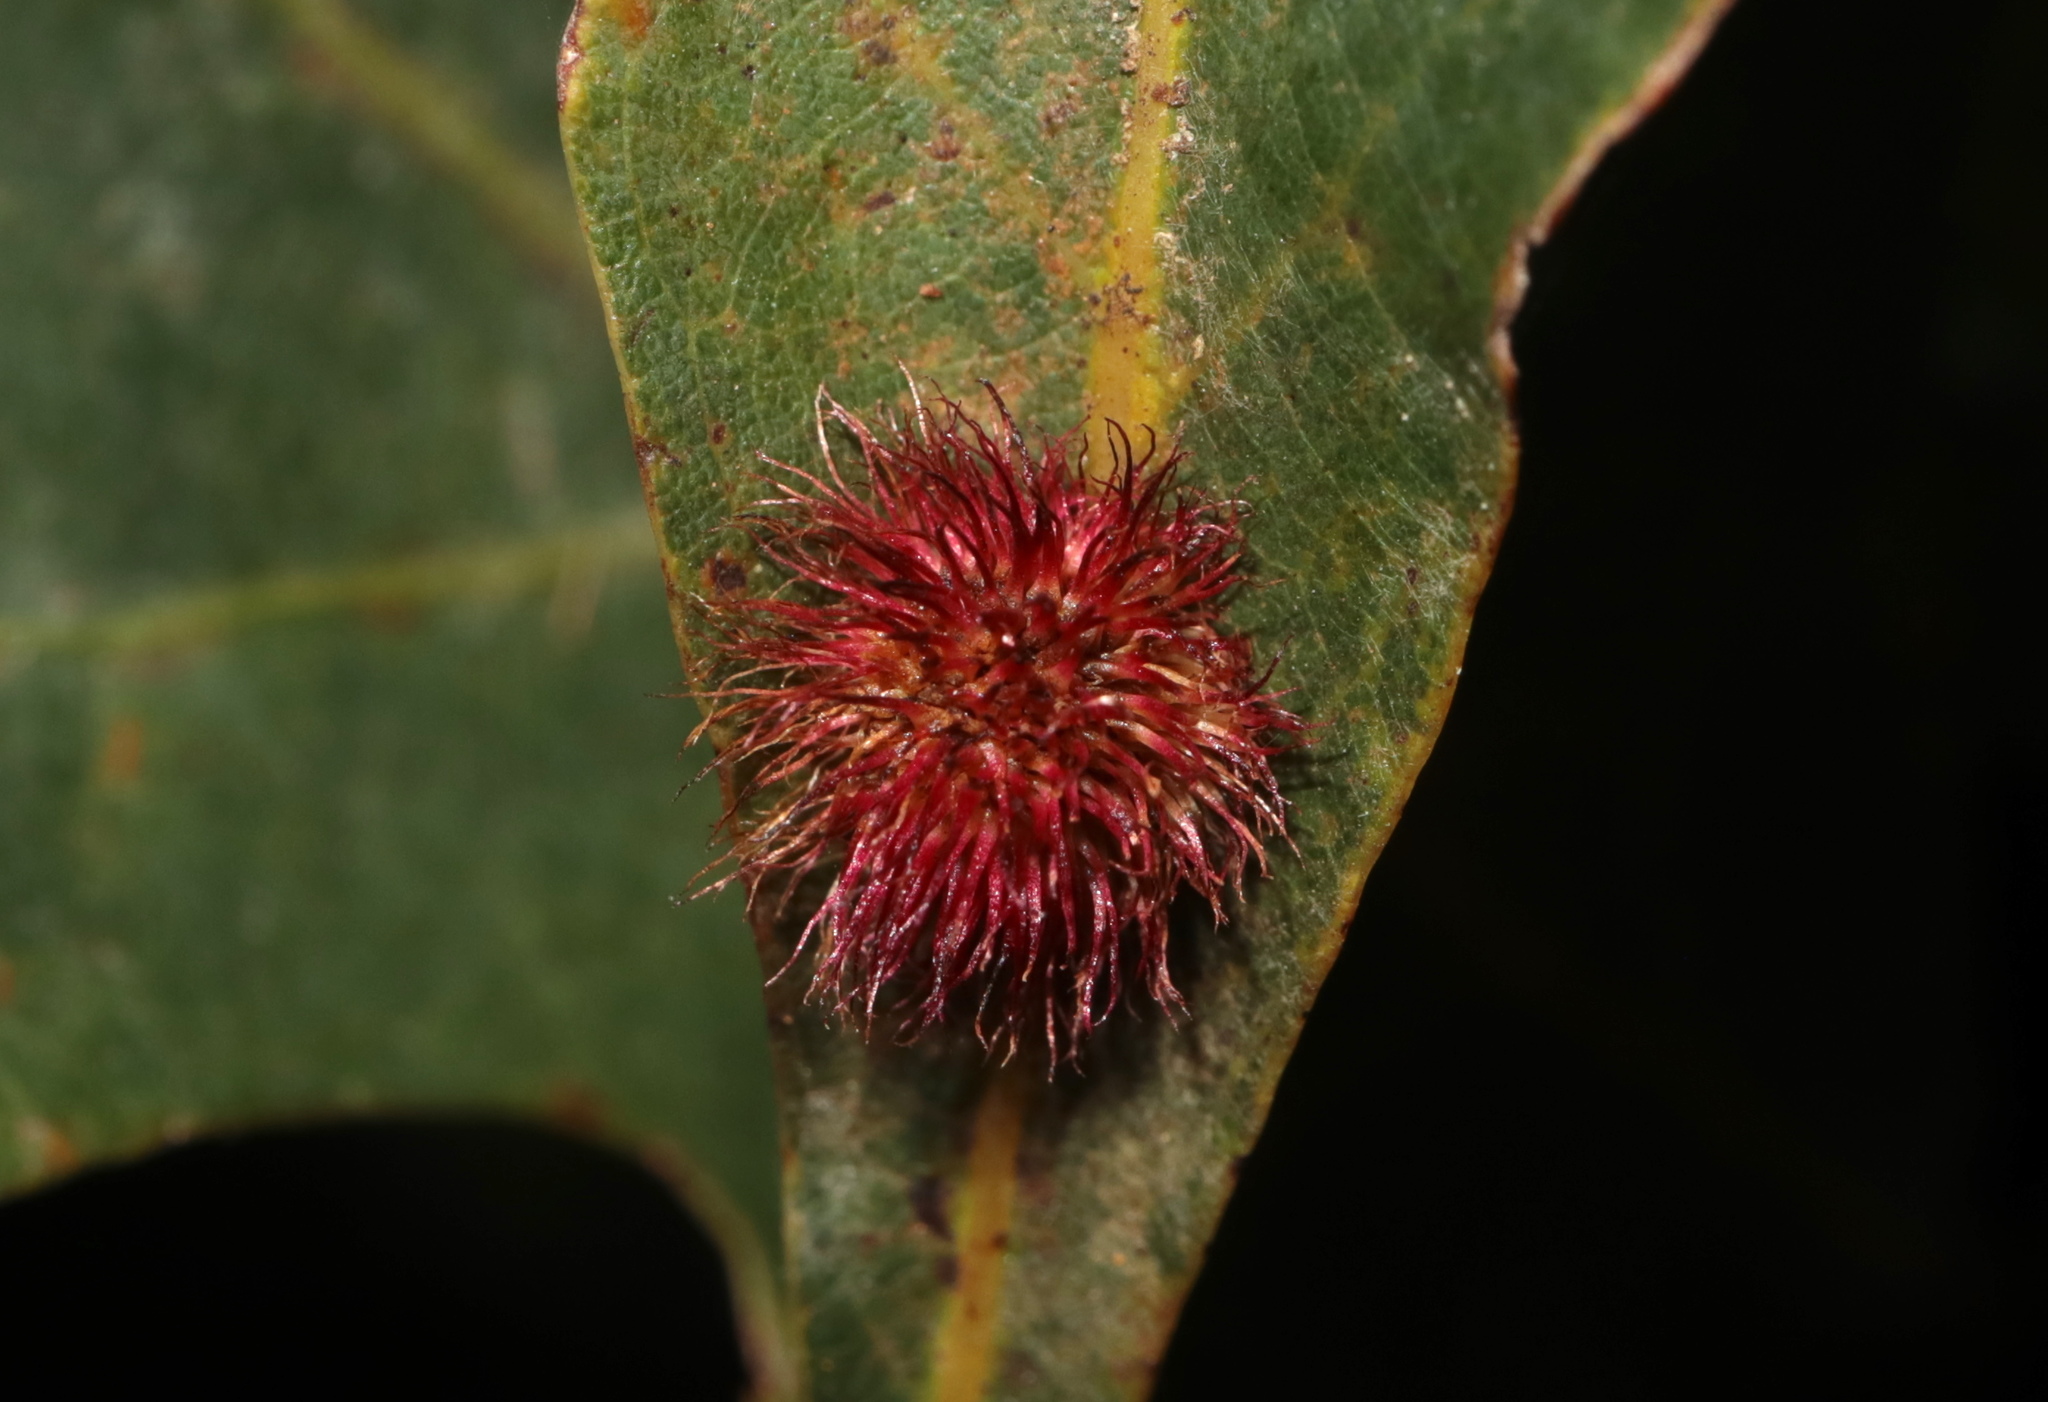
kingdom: Animalia
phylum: Arthropoda
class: Insecta
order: Hymenoptera
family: Cynipidae
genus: Acraspis
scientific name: Acraspis erinacei
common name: Hedgehog gall wasp
